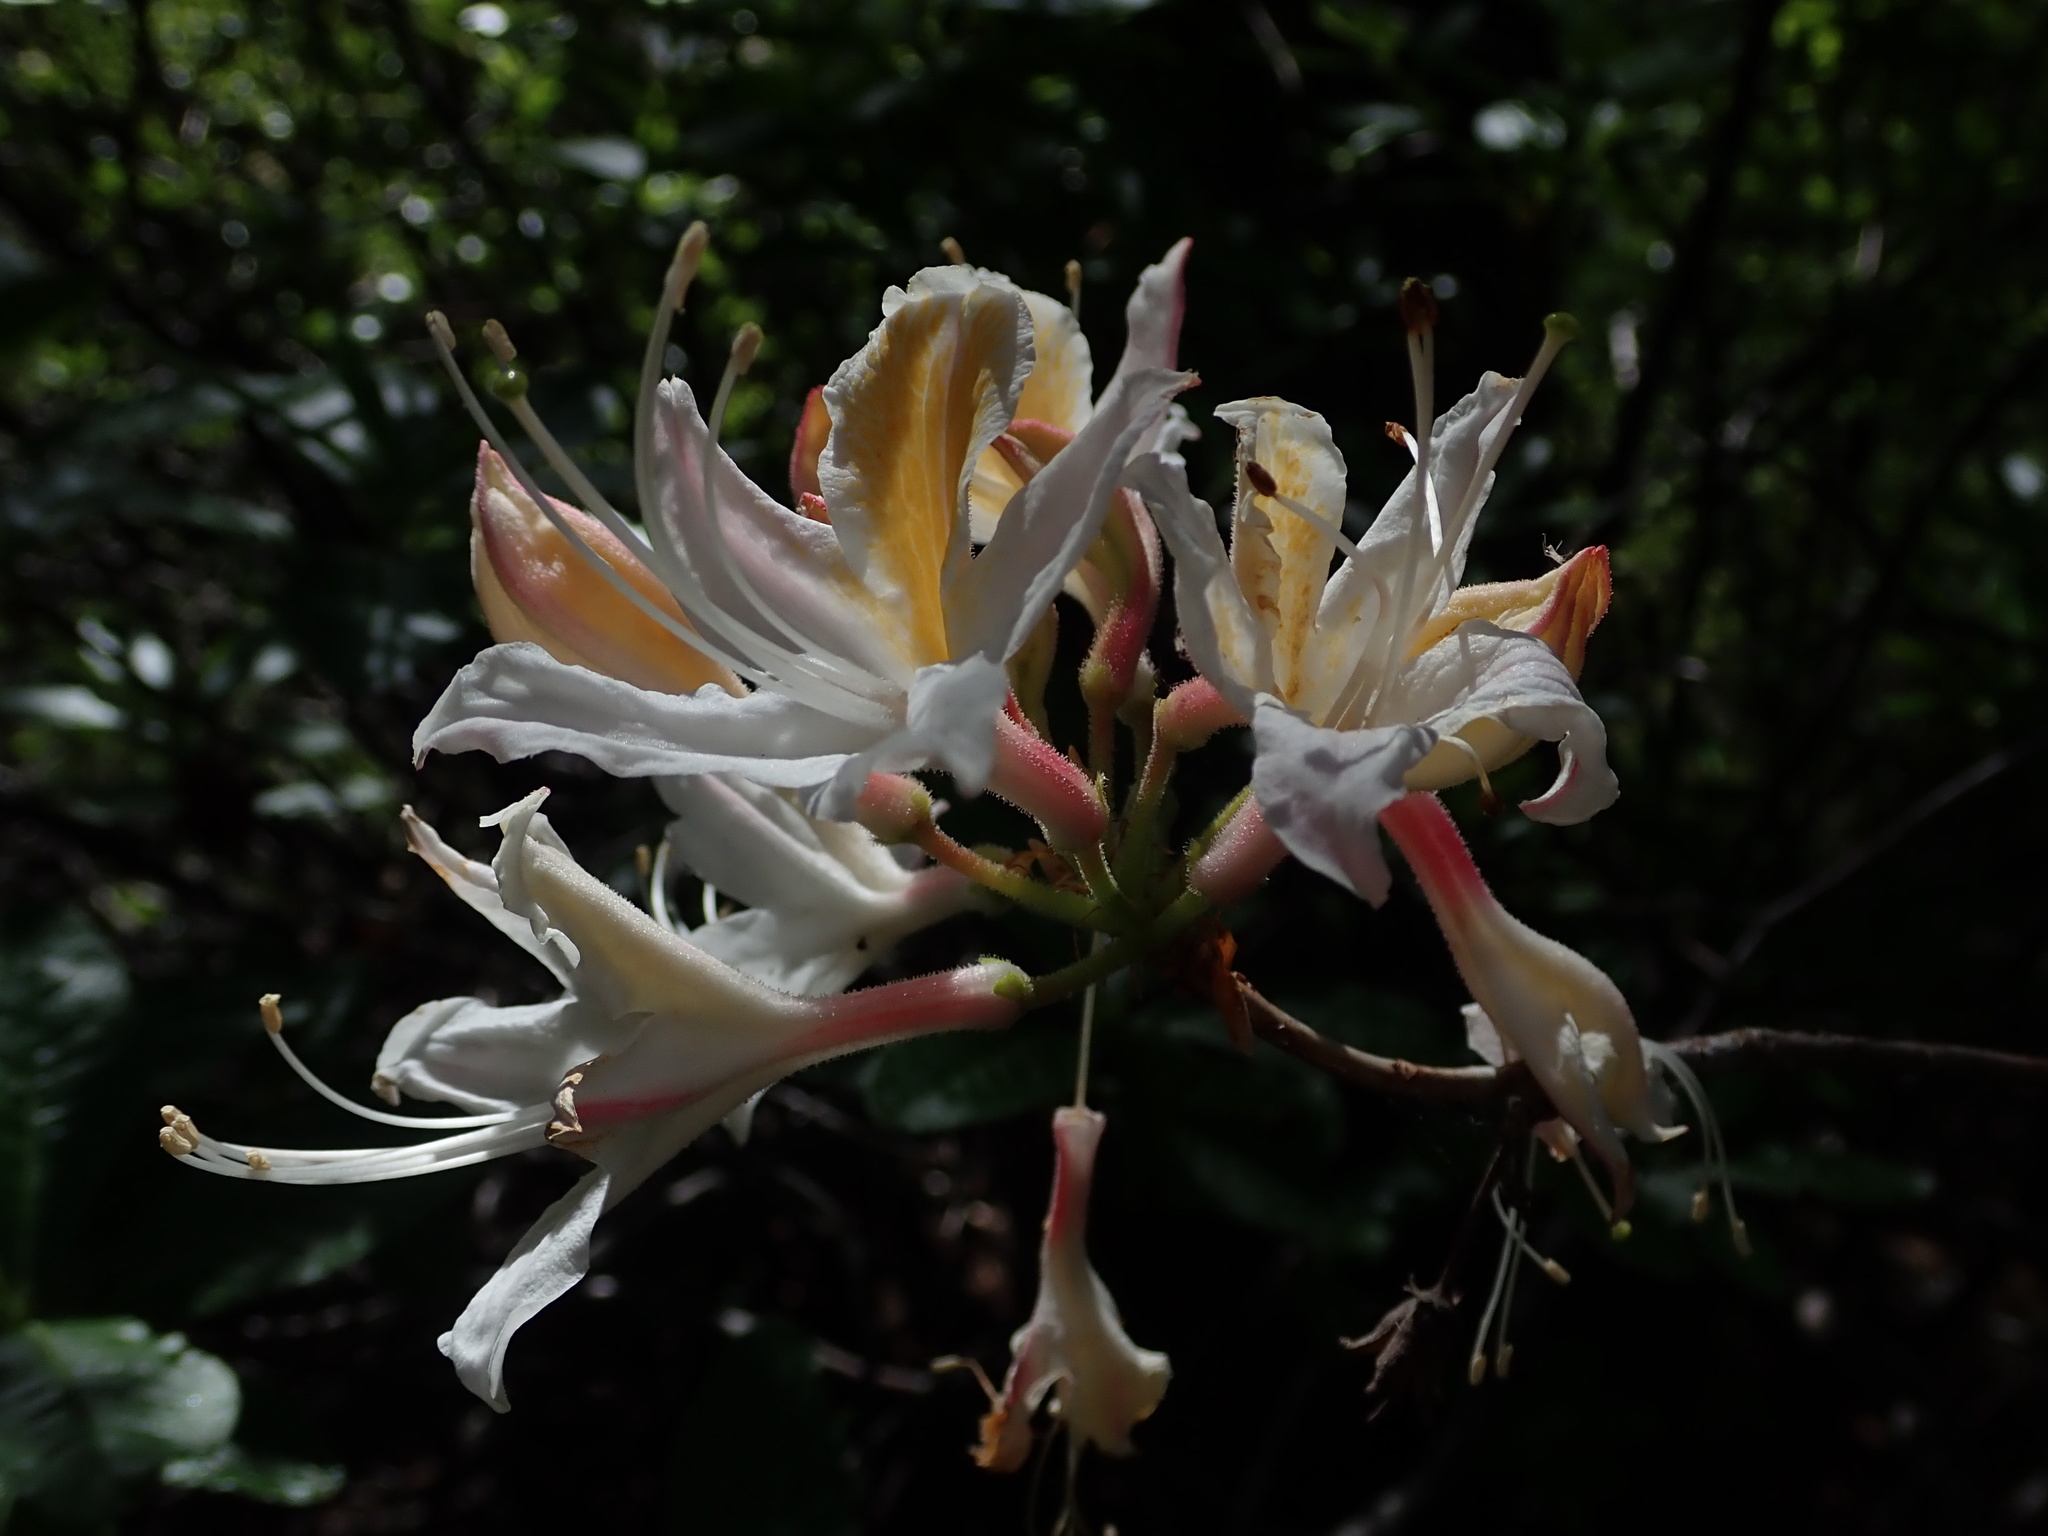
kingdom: Plantae
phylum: Tracheophyta
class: Magnoliopsida
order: Ericales
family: Ericaceae
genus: Rhododendron
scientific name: Rhododendron occidentale
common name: Western azalea
